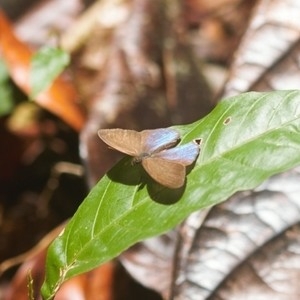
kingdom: Animalia
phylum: Arthropoda
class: Insecta
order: Lepidoptera
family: Nymphalidae
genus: Amiga
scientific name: Amiga arnaca
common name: Blue-topped satyr
